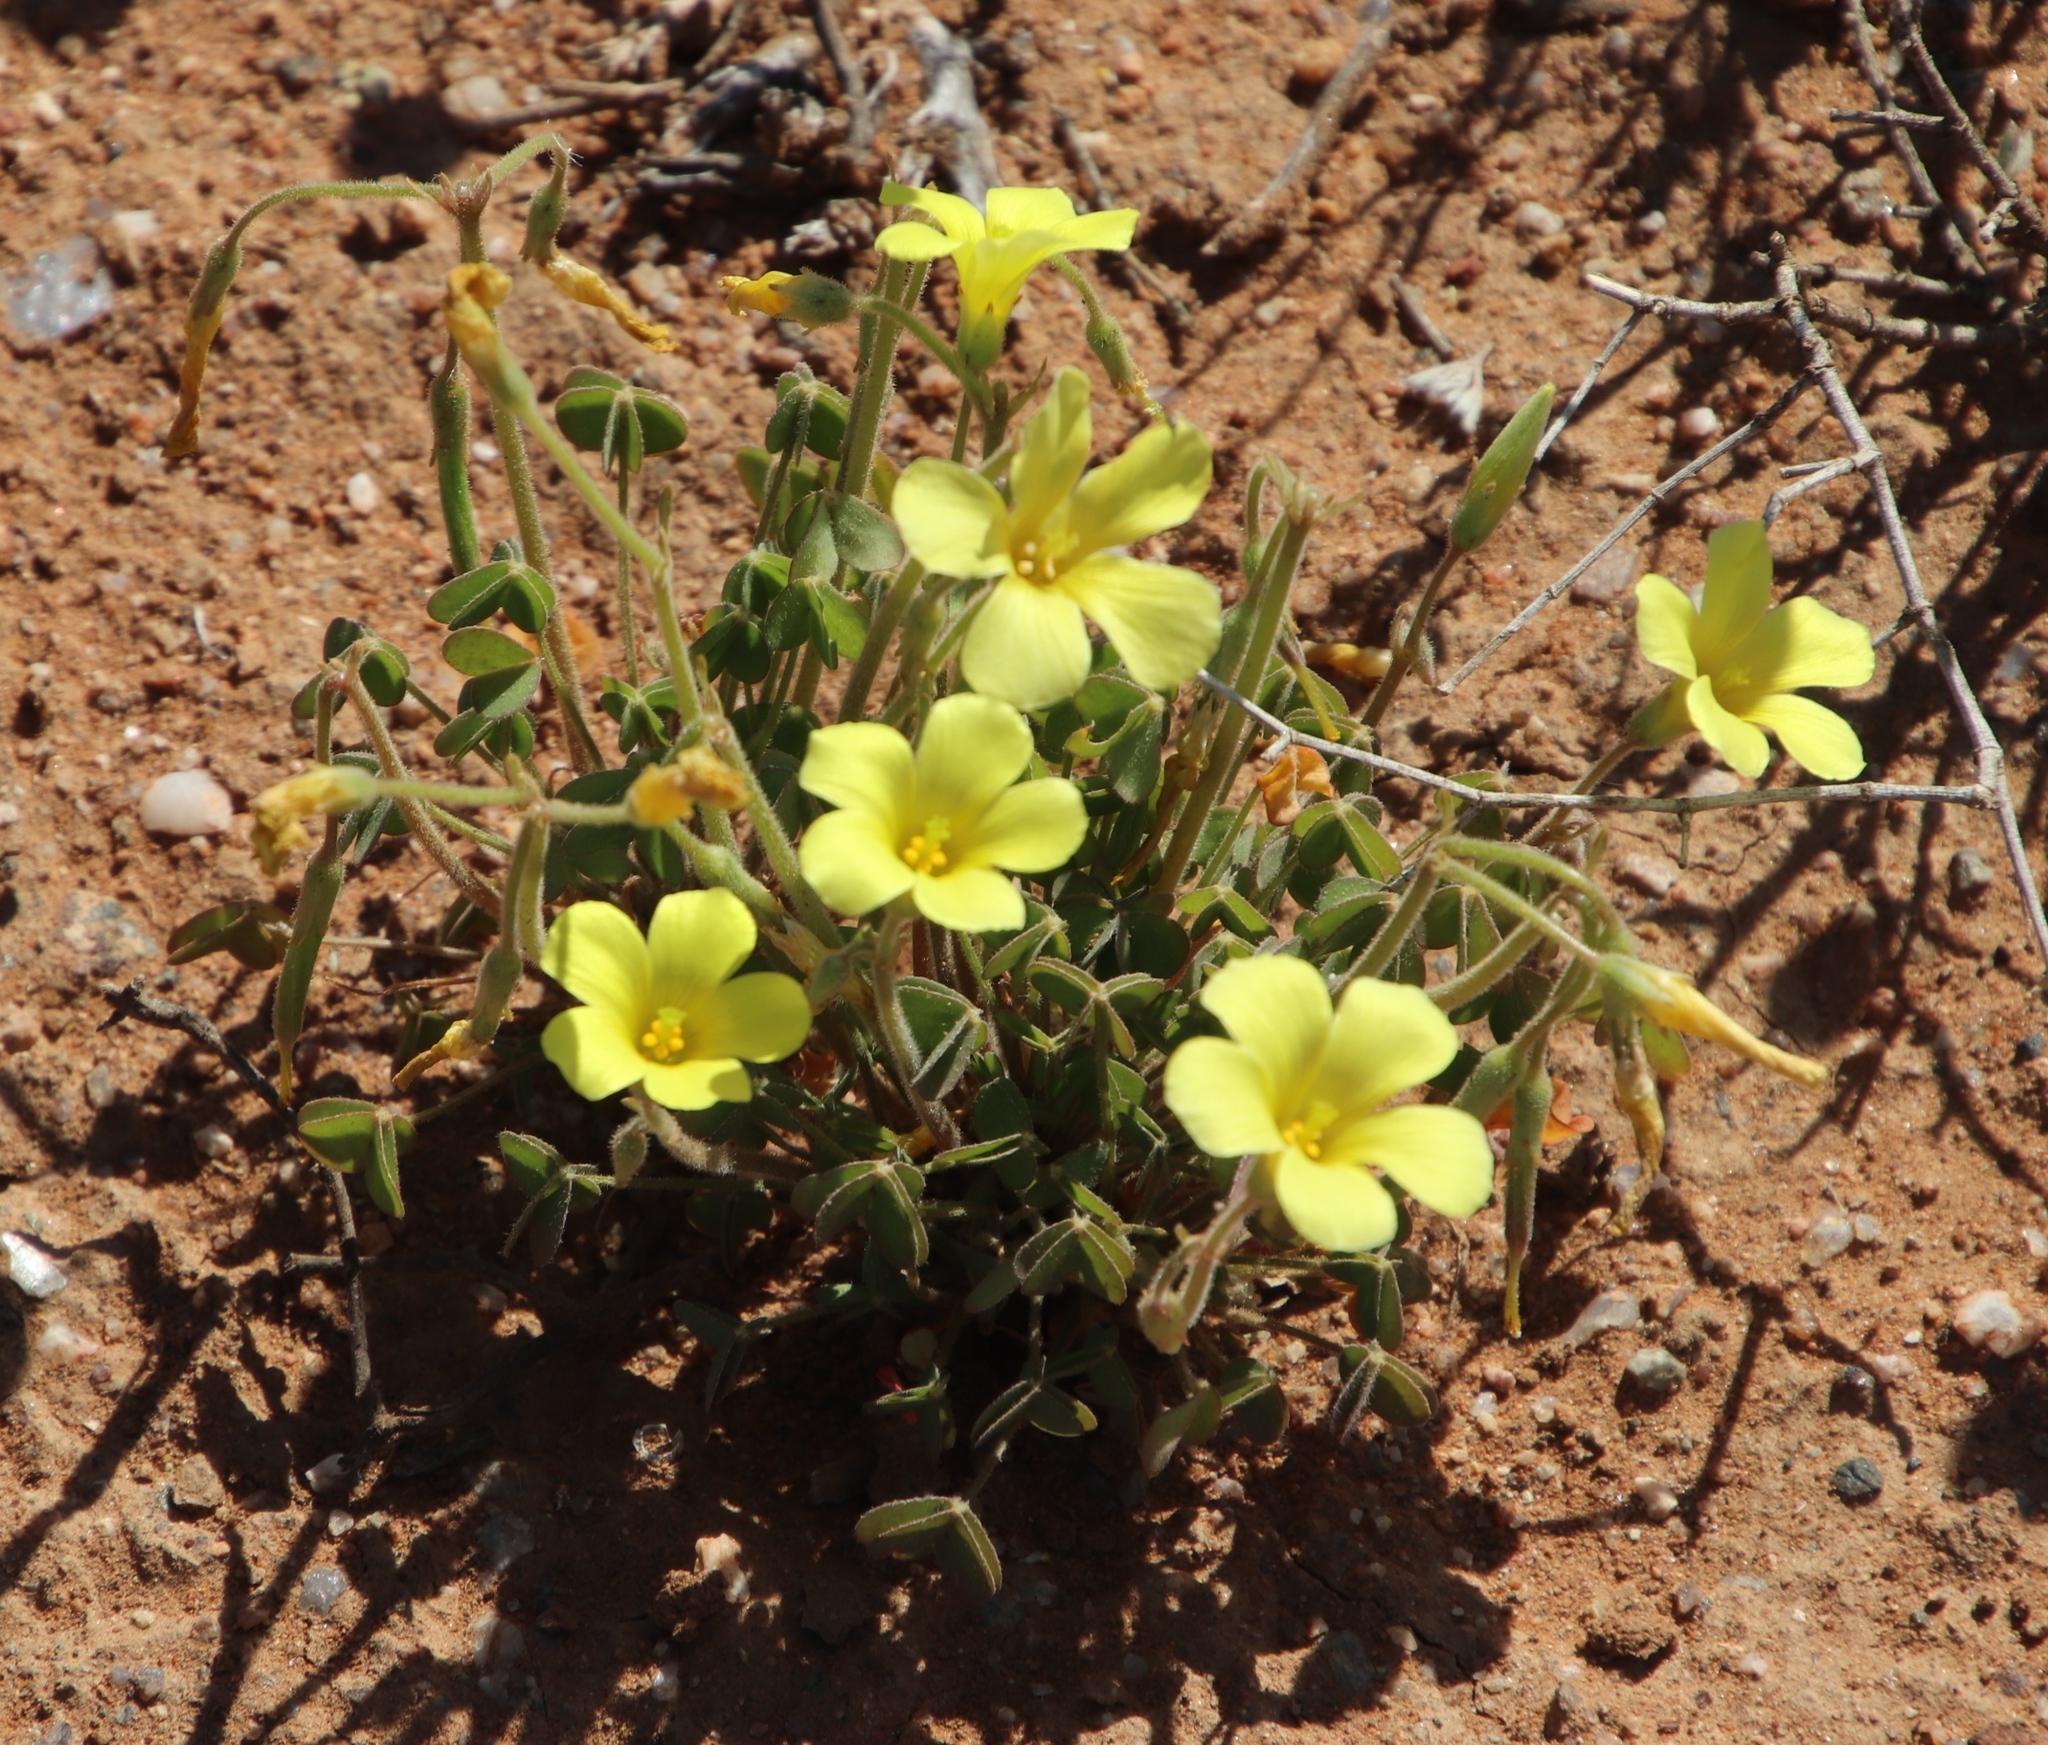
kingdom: Plantae
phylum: Tracheophyta
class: Magnoliopsida
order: Oxalidales
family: Oxalidaceae
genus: Oxalis
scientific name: Oxalis pes-caprae
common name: Bermuda-buttercup
